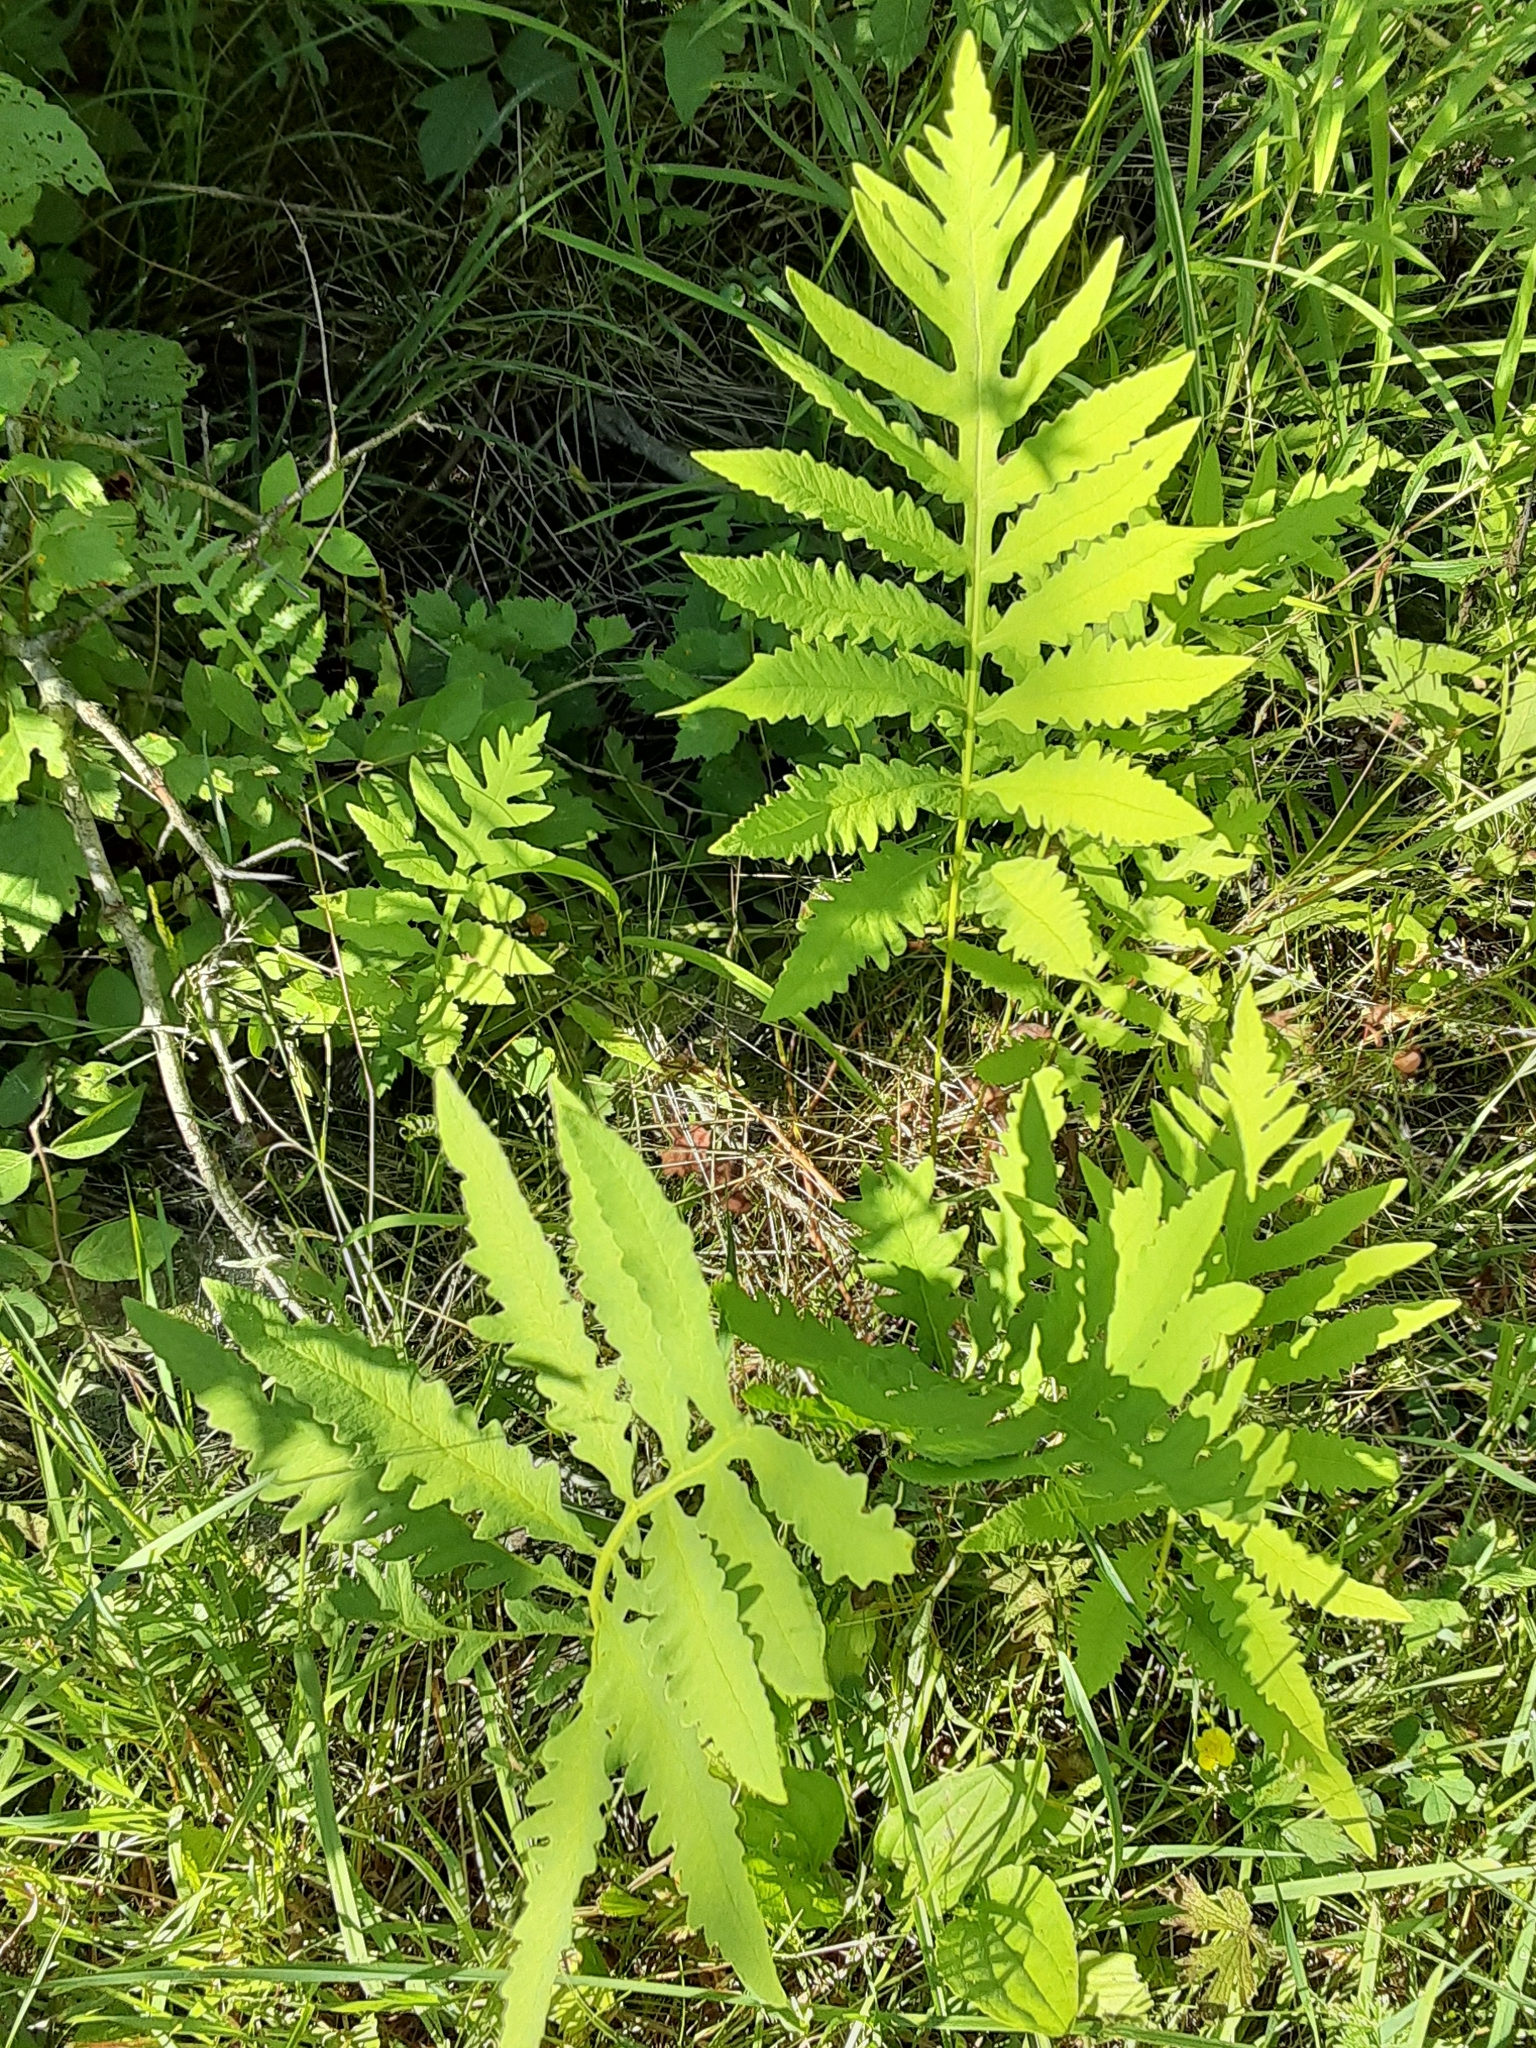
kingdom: Plantae
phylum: Tracheophyta
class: Polypodiopsida
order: Polypodiales
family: Onocleaceae
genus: Onoclea
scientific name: Onoclea sensibilis
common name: Sensitive fern
